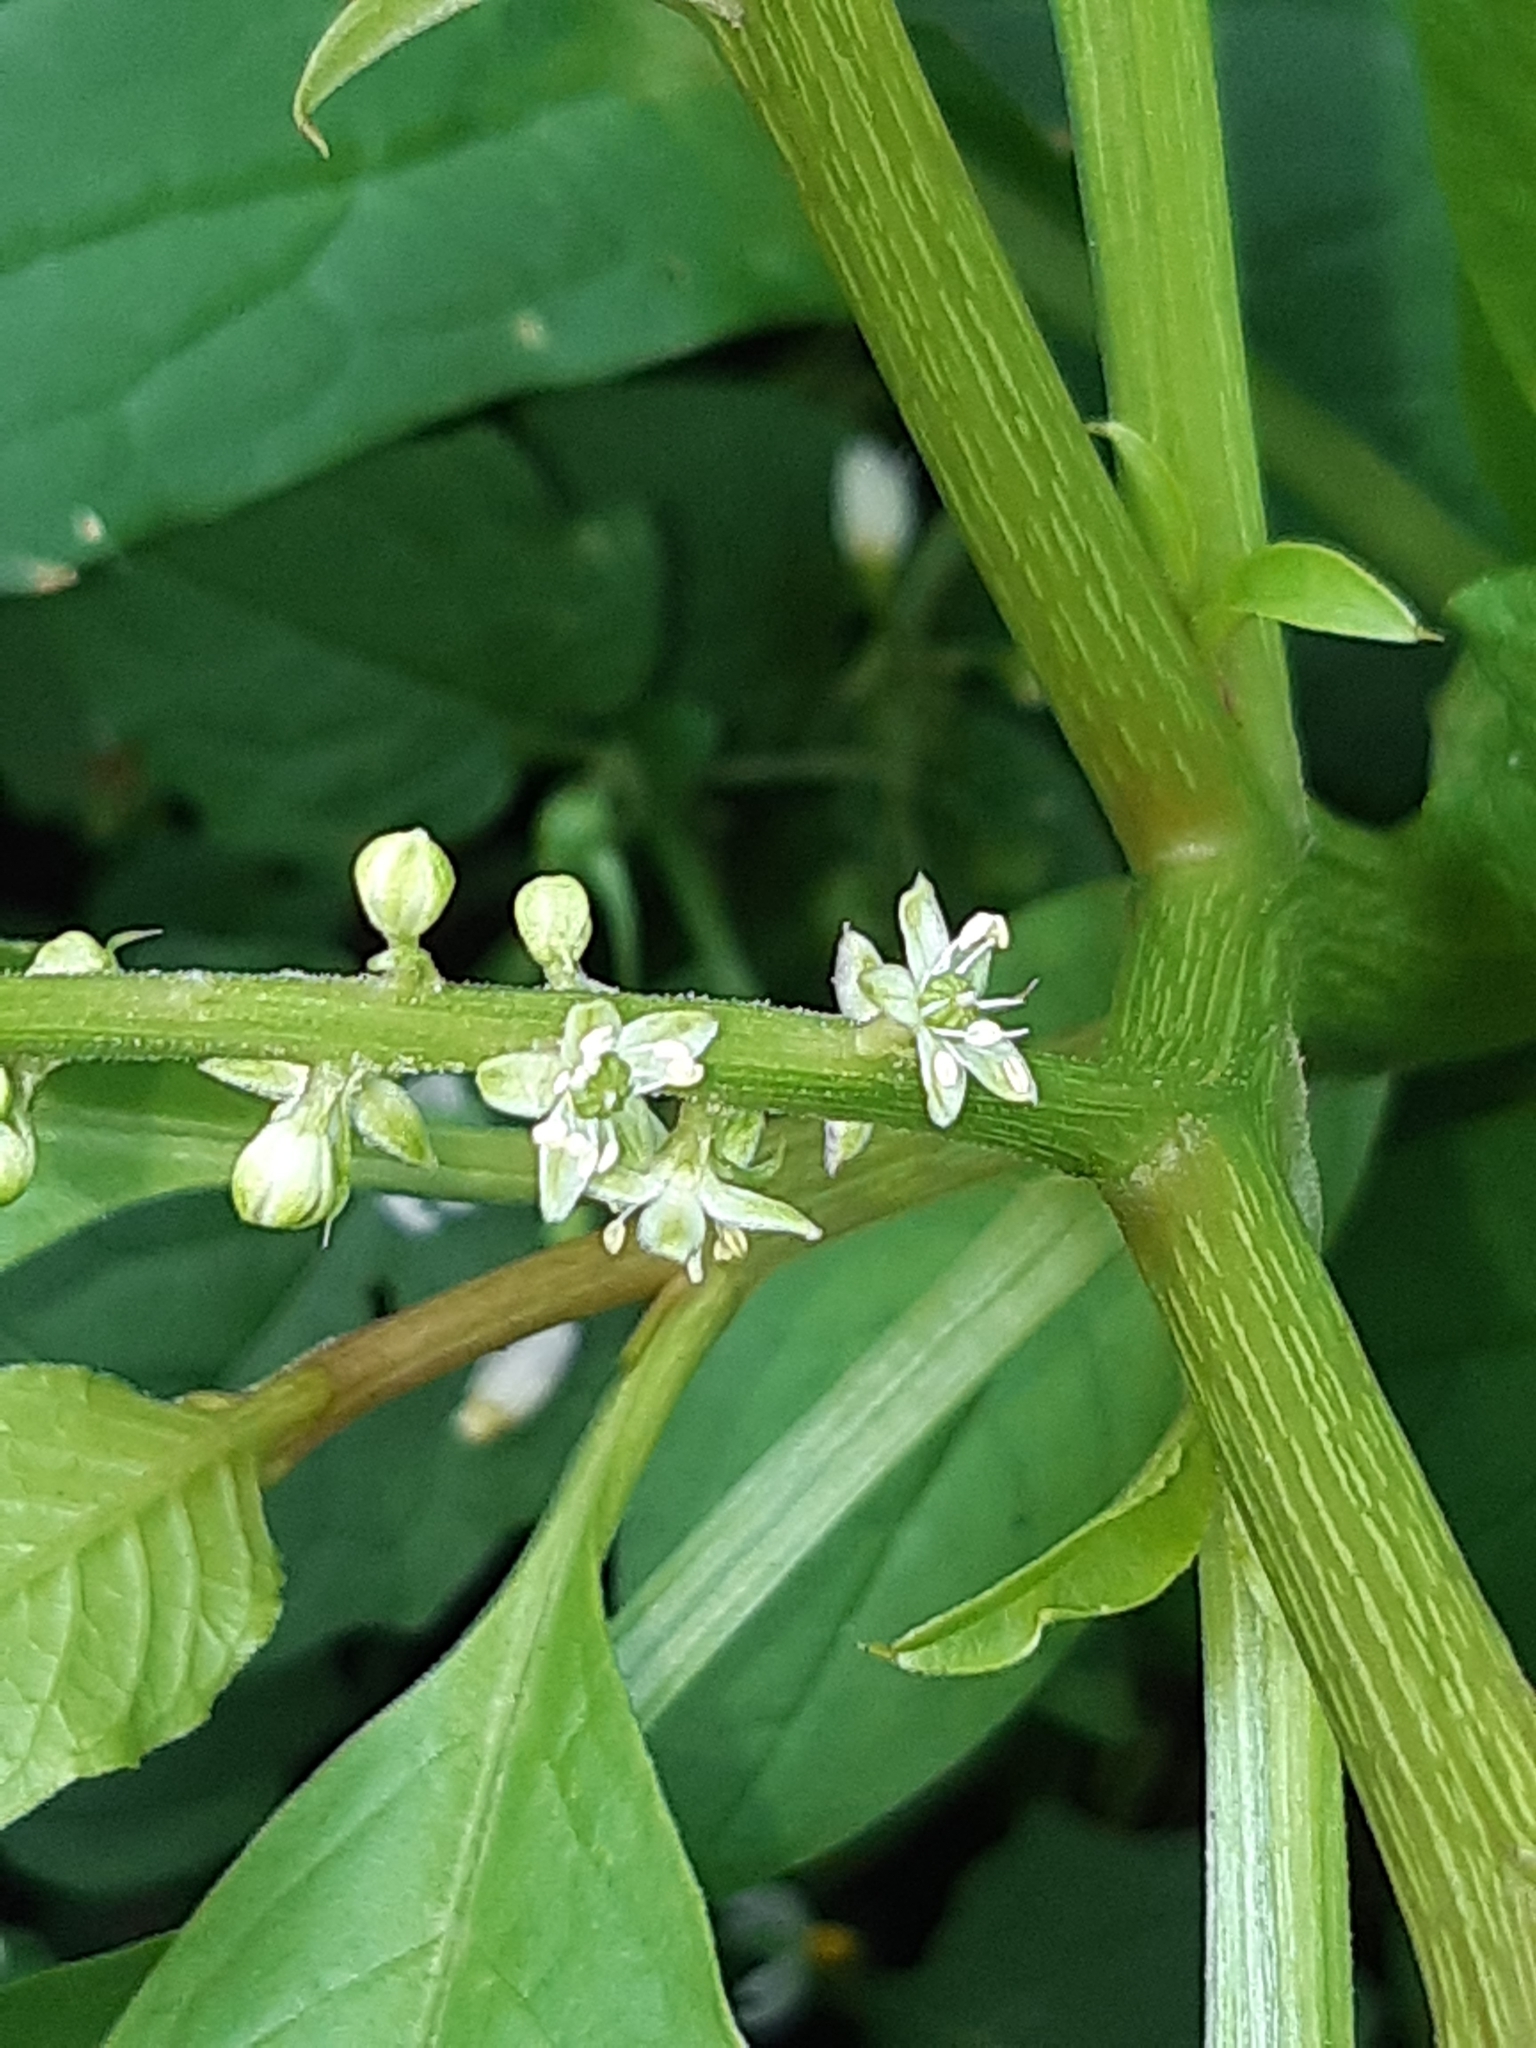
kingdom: Plantae
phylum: Tracheophyta
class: Magnoliopsida
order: Caryophyllales
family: Phytolaccaceae
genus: Phytolacca
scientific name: Phytolacca icosandra
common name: Button pokeweed
